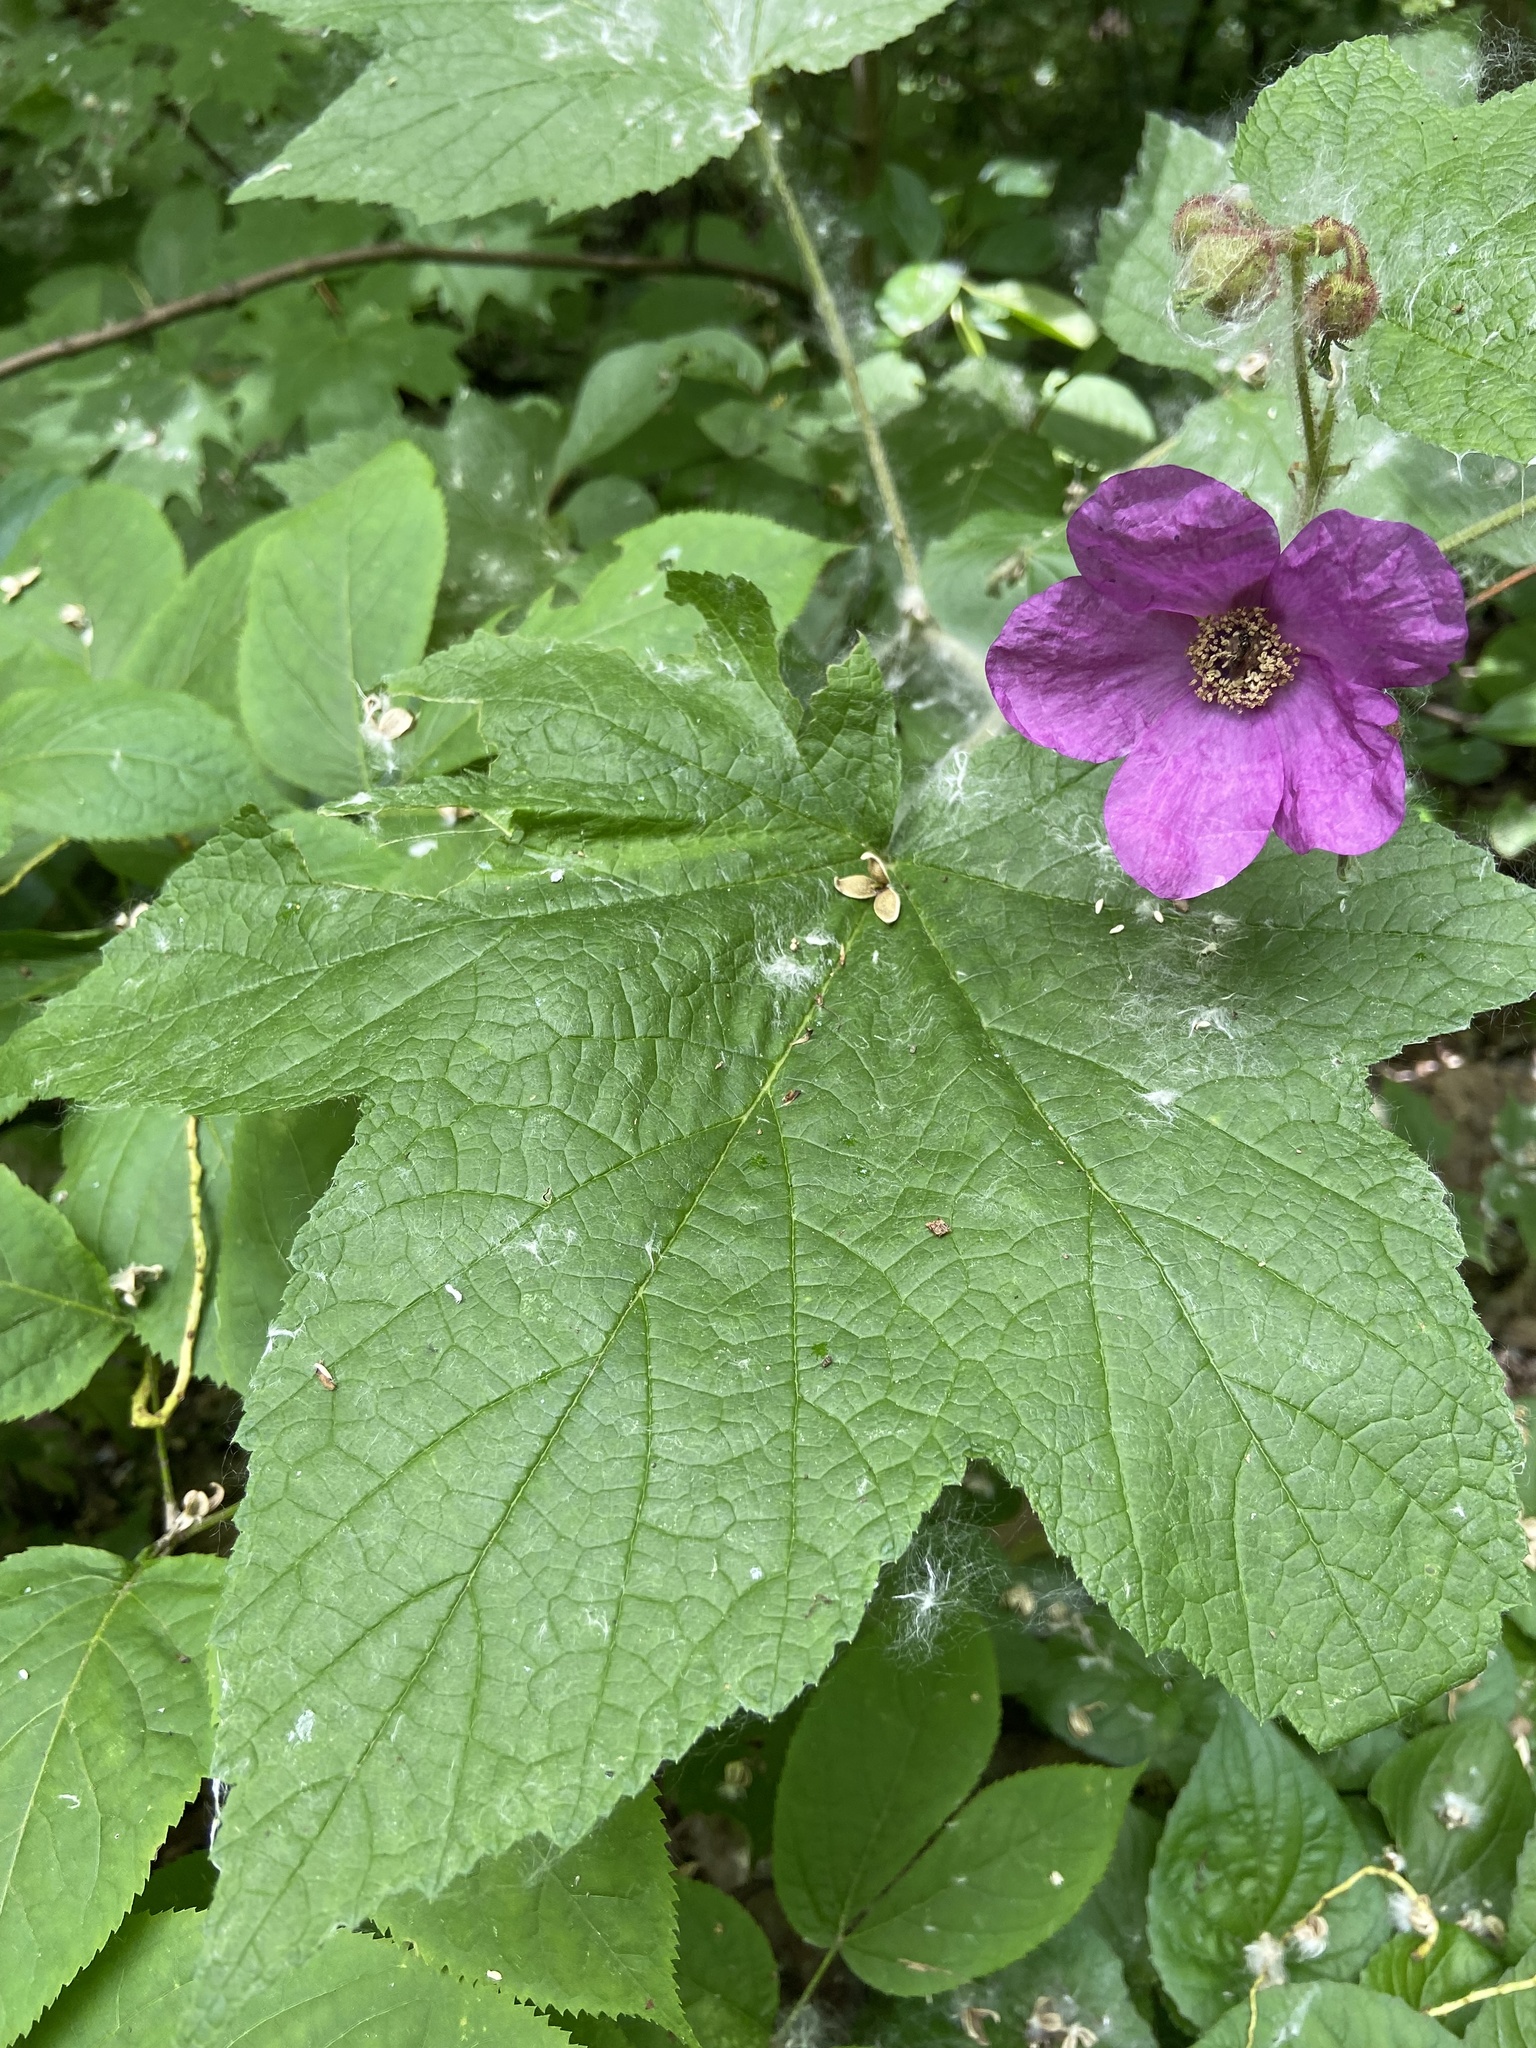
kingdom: Plantae
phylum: Tracheophyta
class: Magnoliopsida
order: Rosales
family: Rosaceae
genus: Rubus
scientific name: Rubus odoratus
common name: Purple-flowered raspberry
